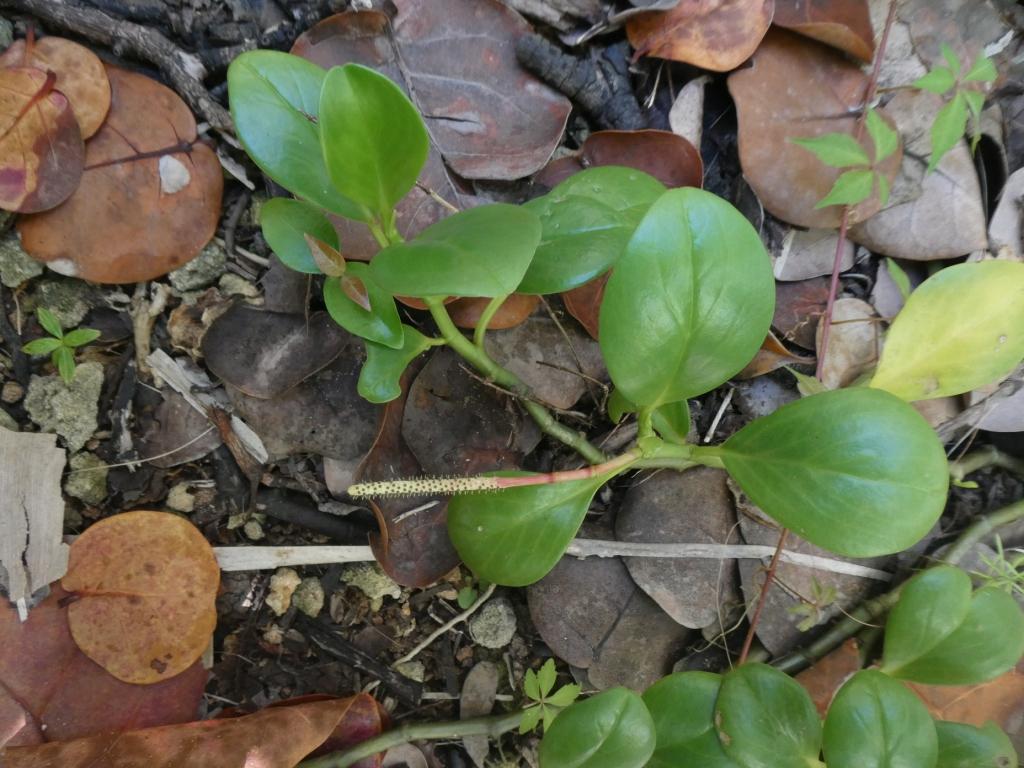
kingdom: Plantae
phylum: Tracheophyta
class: Magnoliopsida
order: Piperales
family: Piperaceae
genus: Peperomia
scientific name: Peperomia septentrionalis
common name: Wild bermuda pepper
